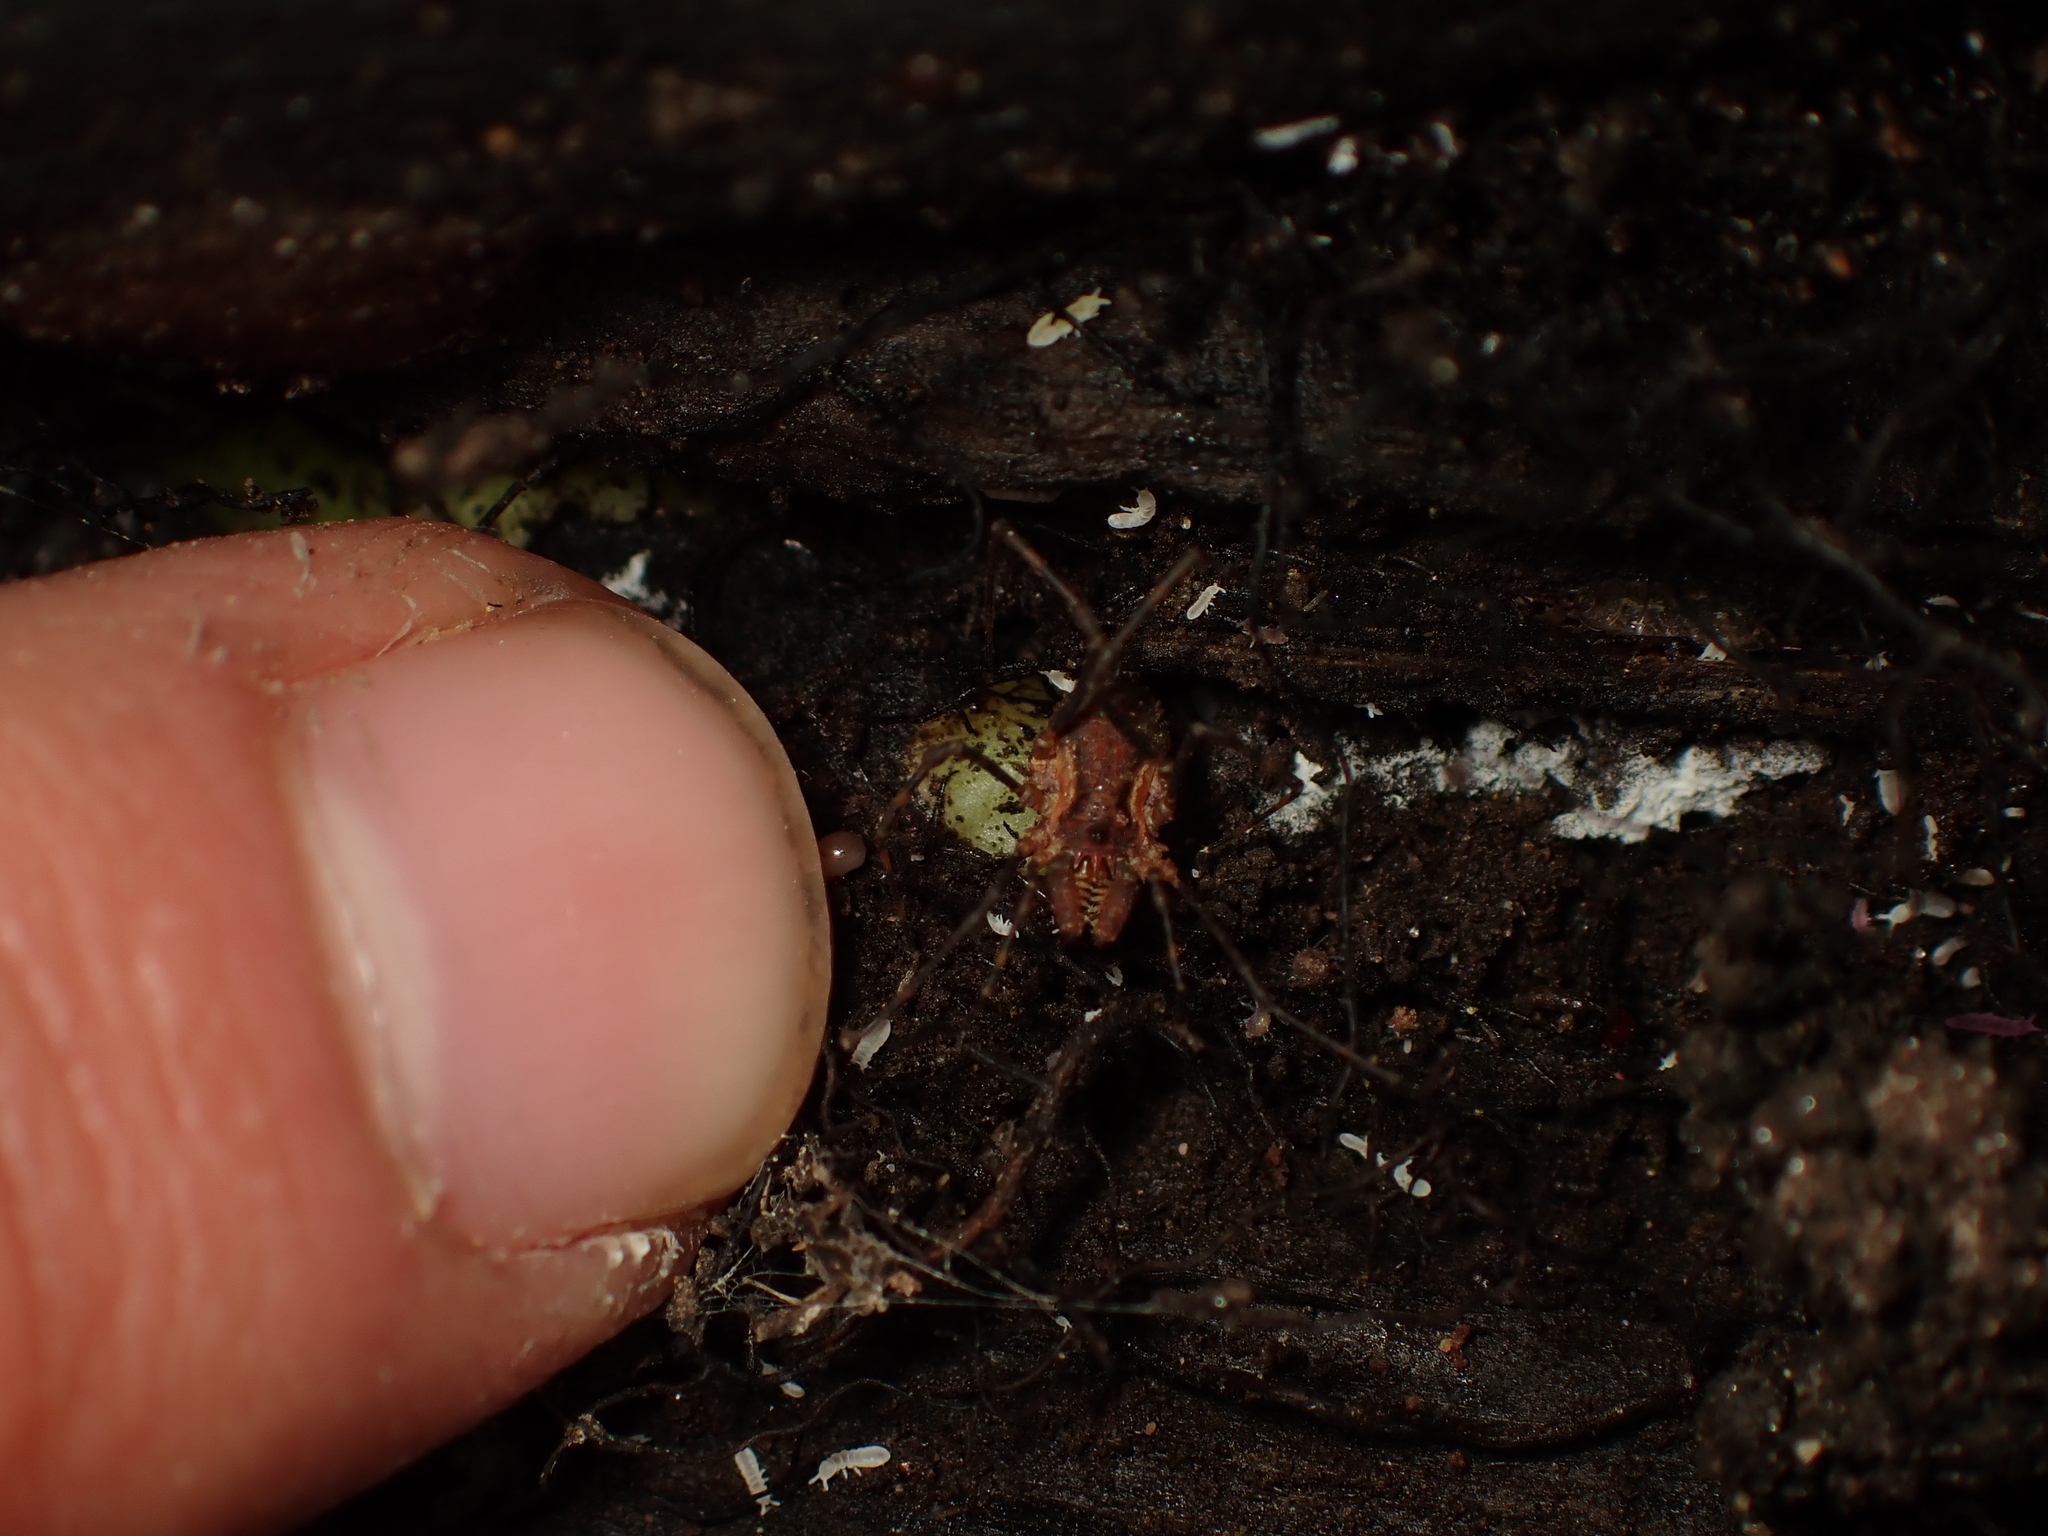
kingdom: Animalia
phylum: Arthropoda
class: Arachnida
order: Opiliones
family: Triaenonychidae
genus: Algidia
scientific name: Algidia interrupta
